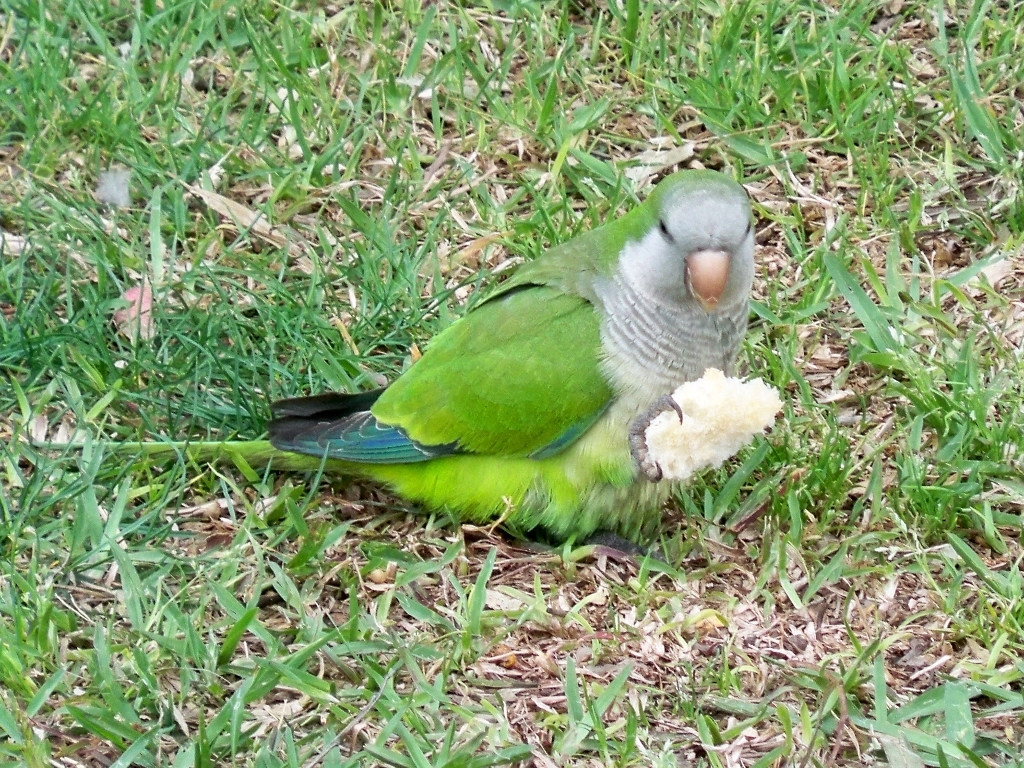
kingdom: Animalia
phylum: Chordata
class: Aves
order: Psittaciformes
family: Psittacidae
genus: Myiopsitta
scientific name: Myiopsitta monachus
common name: Monk parakeet
